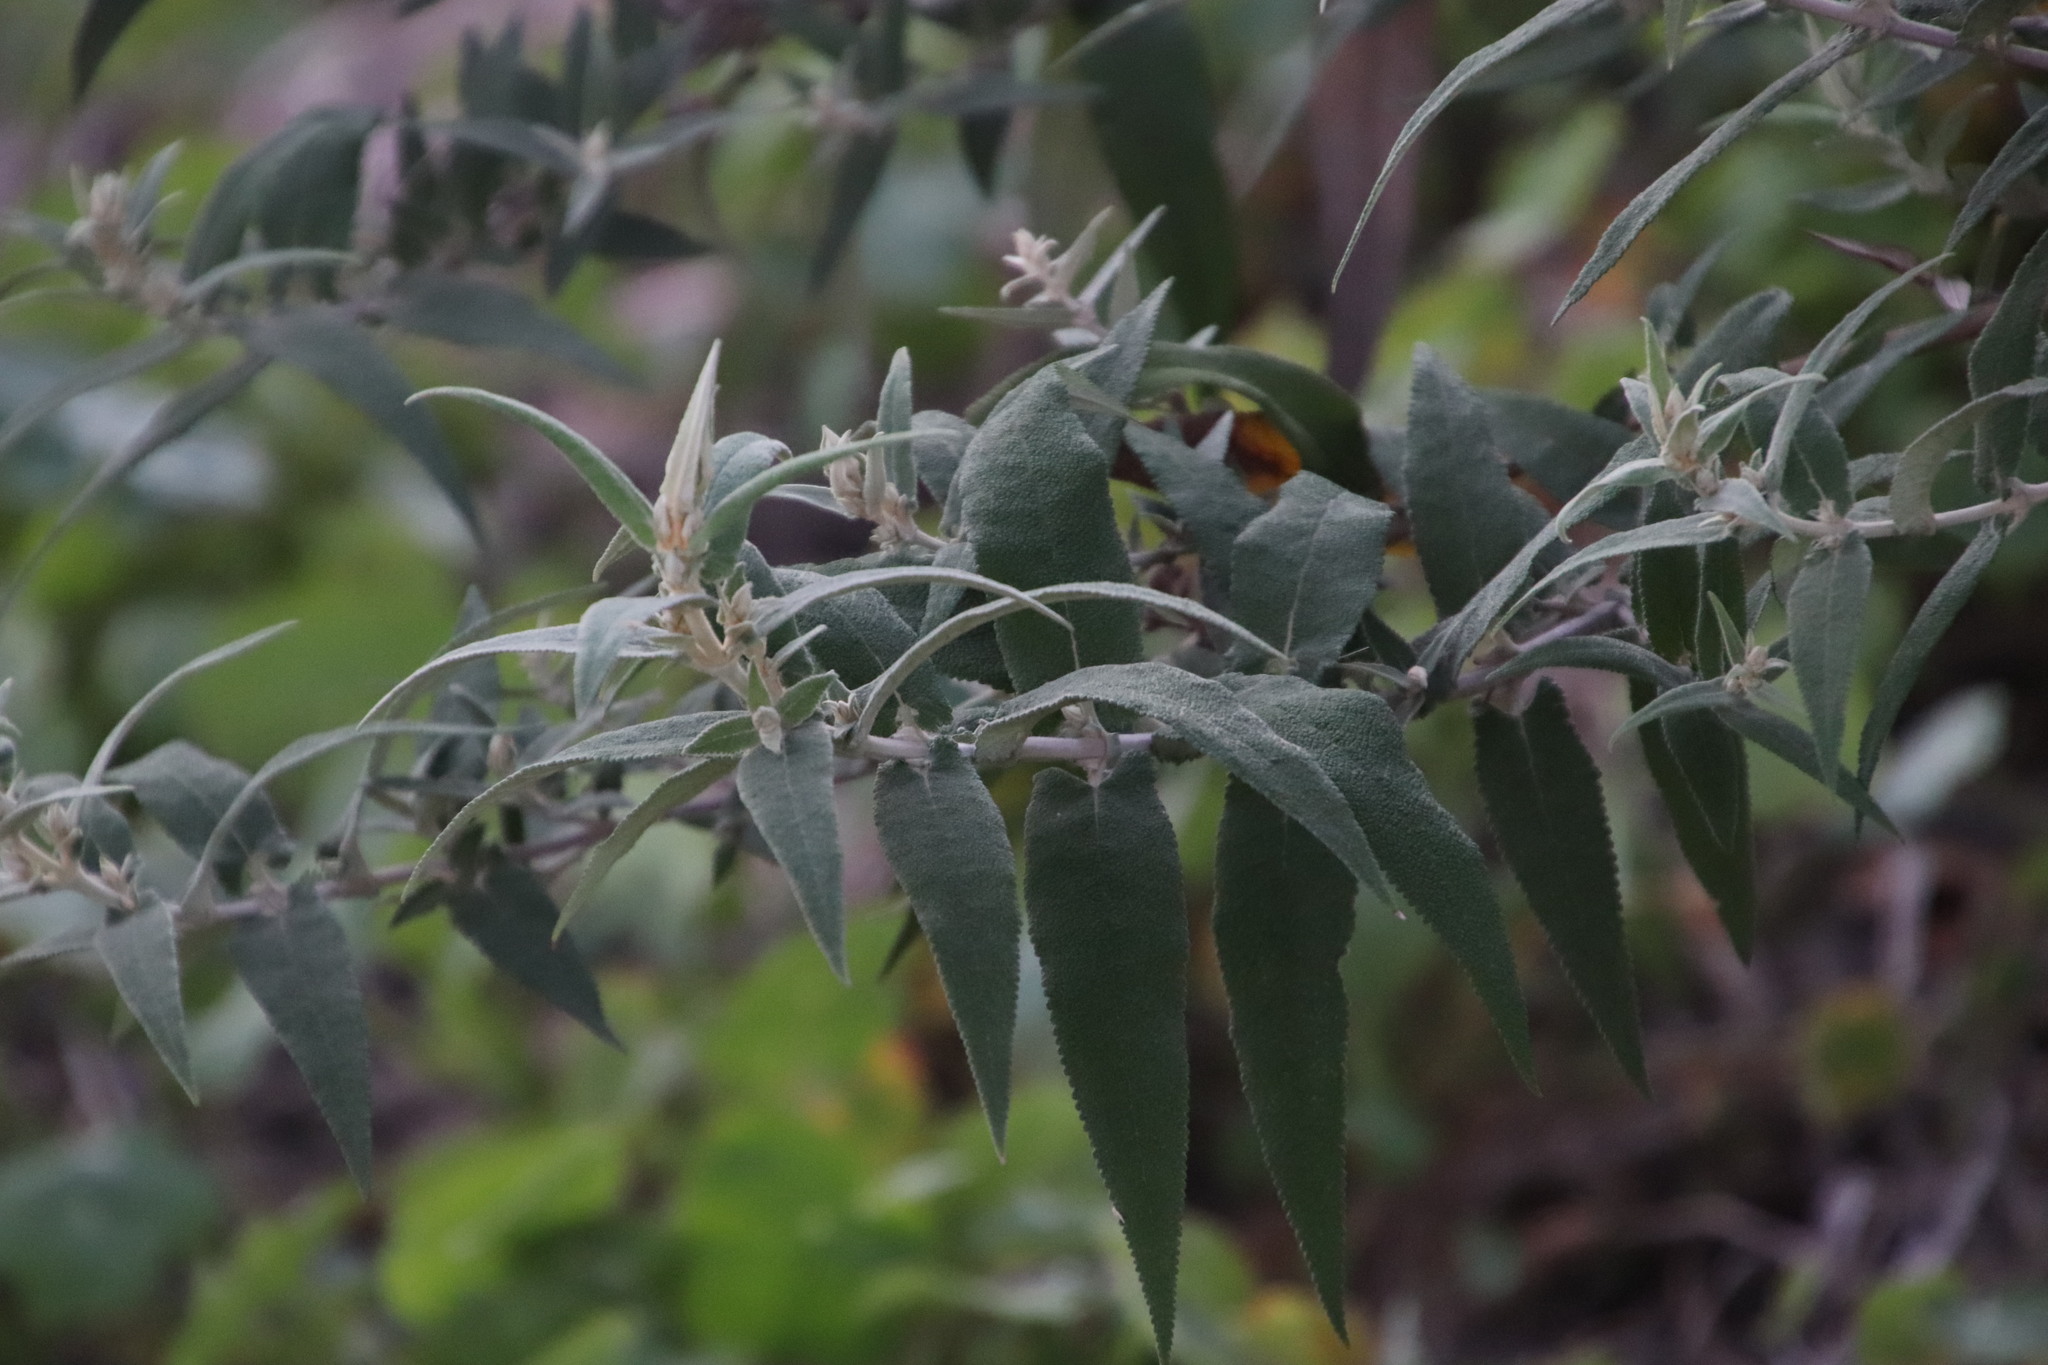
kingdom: Plantae
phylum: Tracheophyta
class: Magnoliopsida
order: Lamiales
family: Scrophulariaceae
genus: Buddleja
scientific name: Buddleja salviifolia
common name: Sagewood
